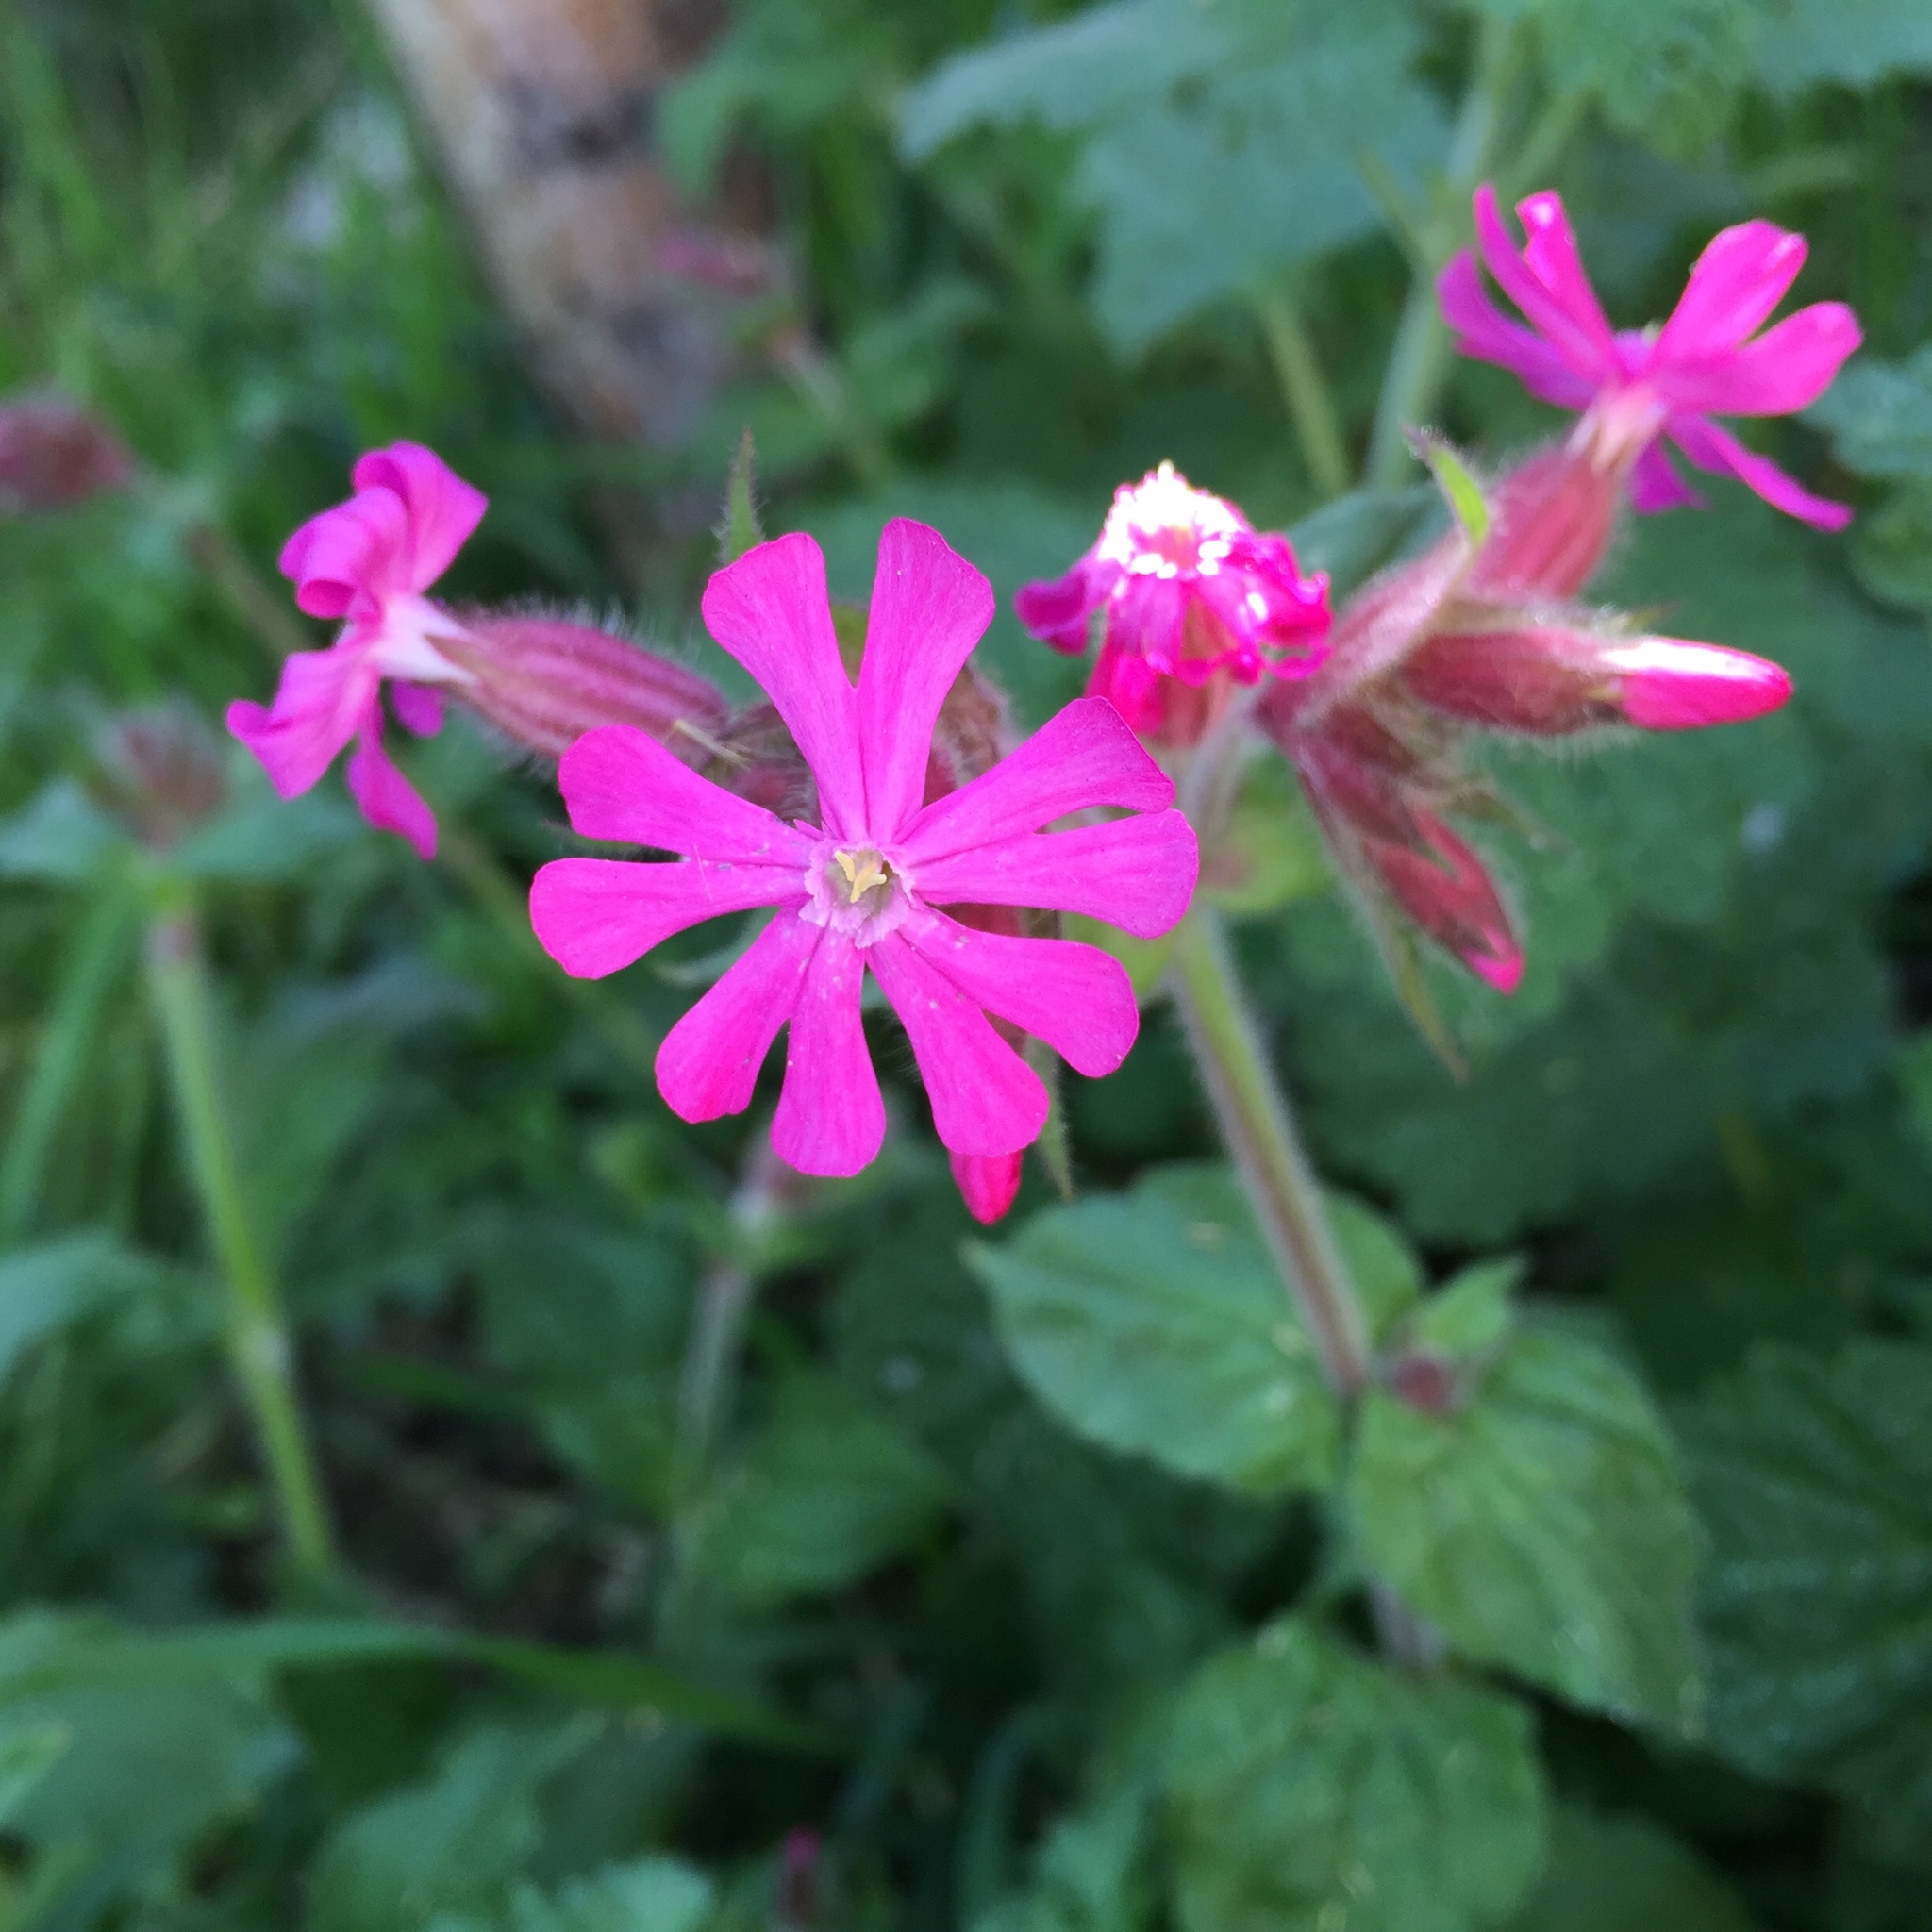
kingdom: Plantae
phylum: Tracheophyta
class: Magnoliopsida
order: Caryophyllales
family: Caryophyllaceae
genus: Silene
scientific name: Silene dioica
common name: Red campion
